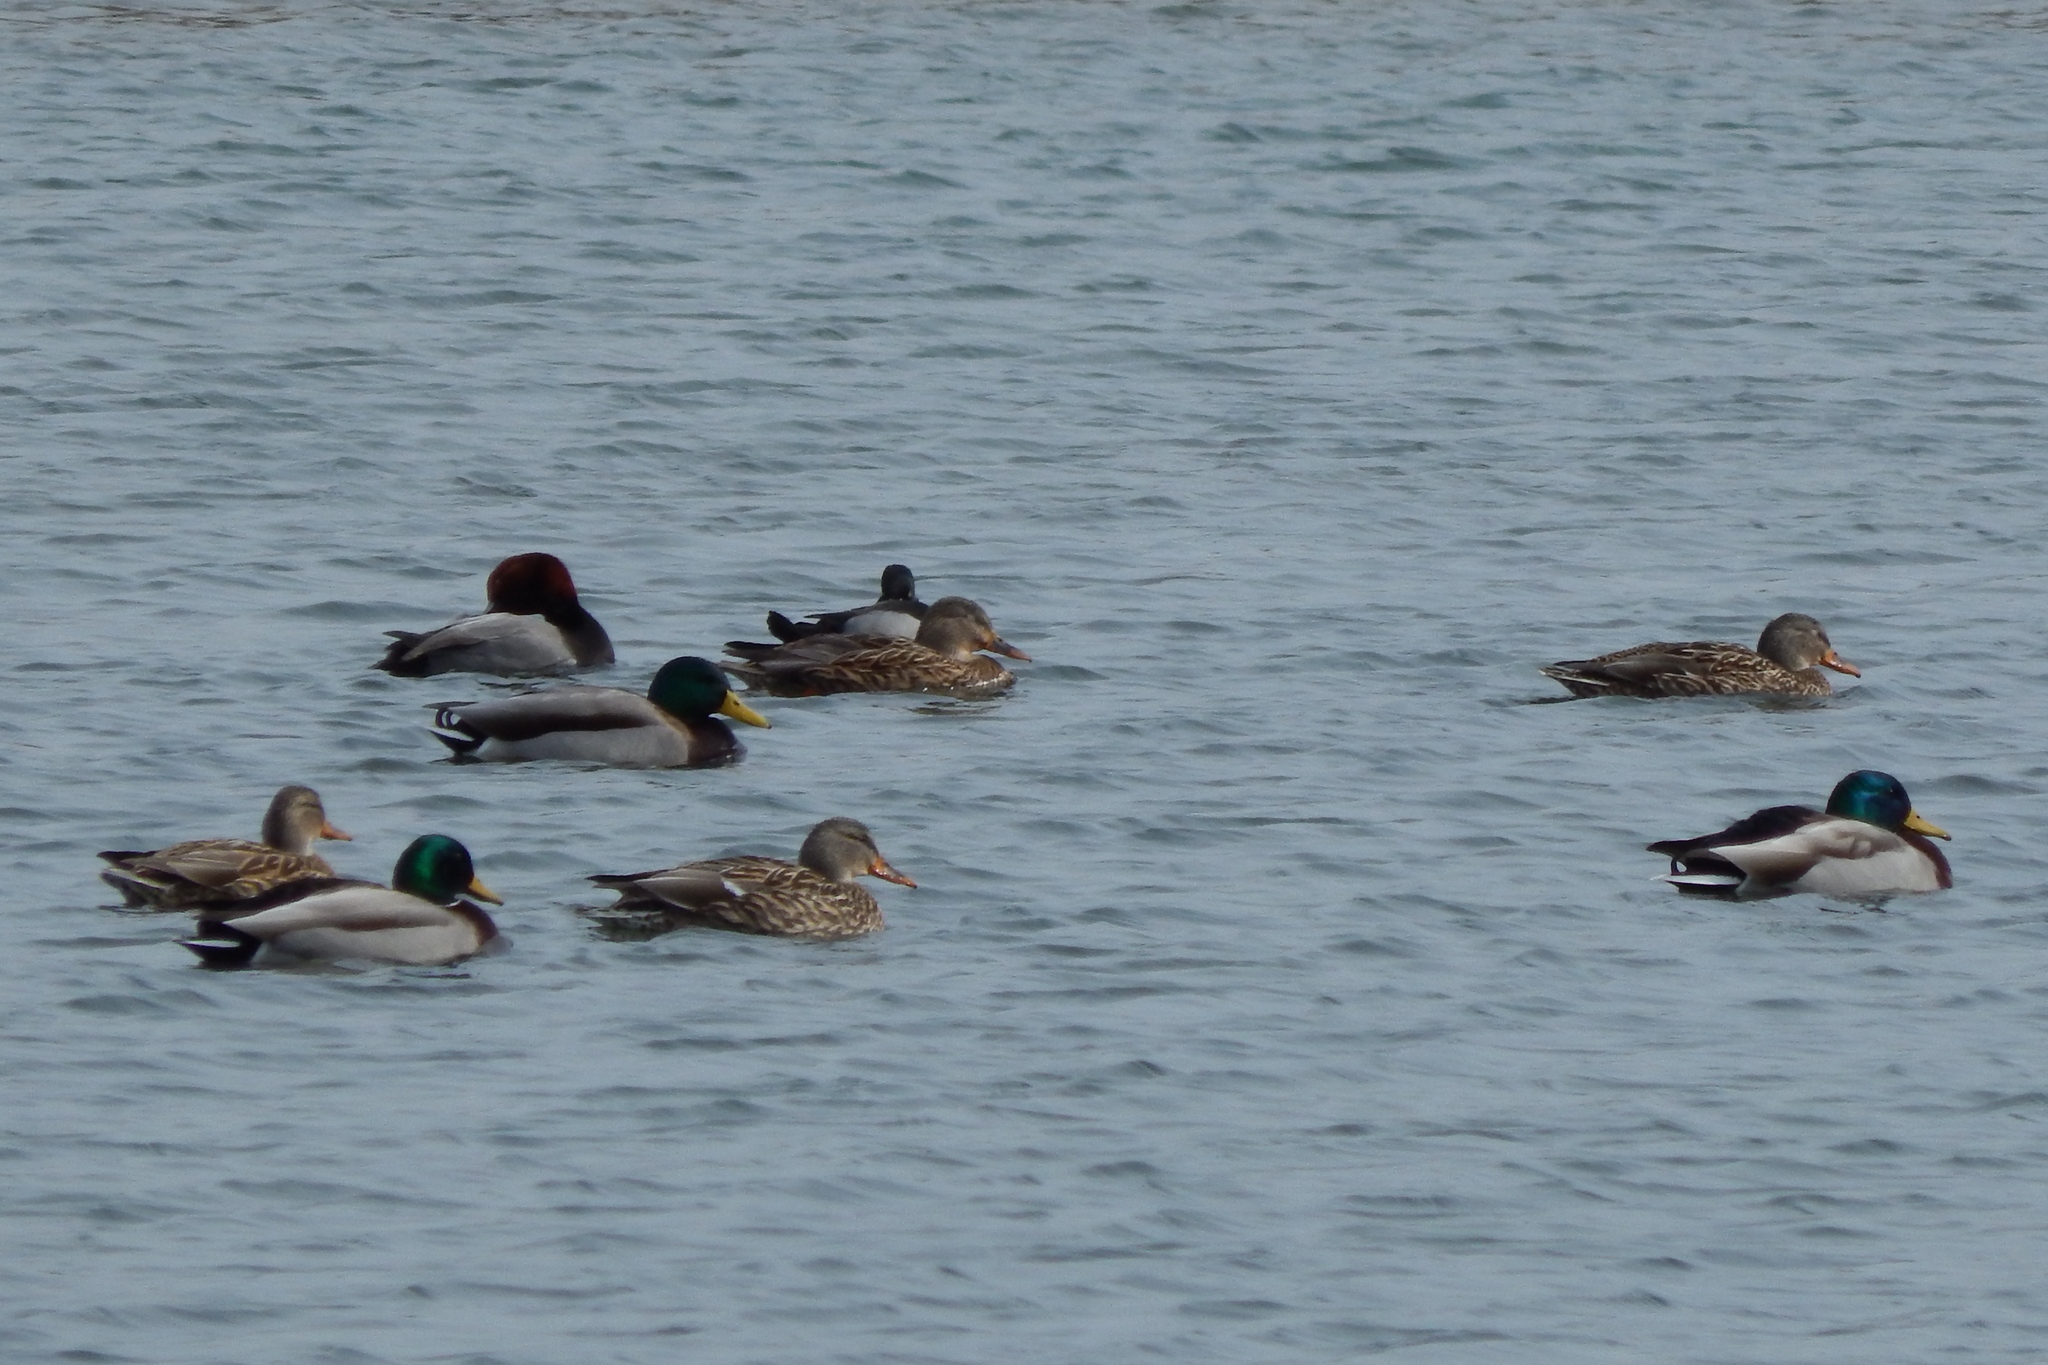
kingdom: Animalia
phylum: Chordata
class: Aves
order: Anseriformes
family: Anatidae
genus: Anas
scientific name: Anas platyrhynchos
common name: Mallard
